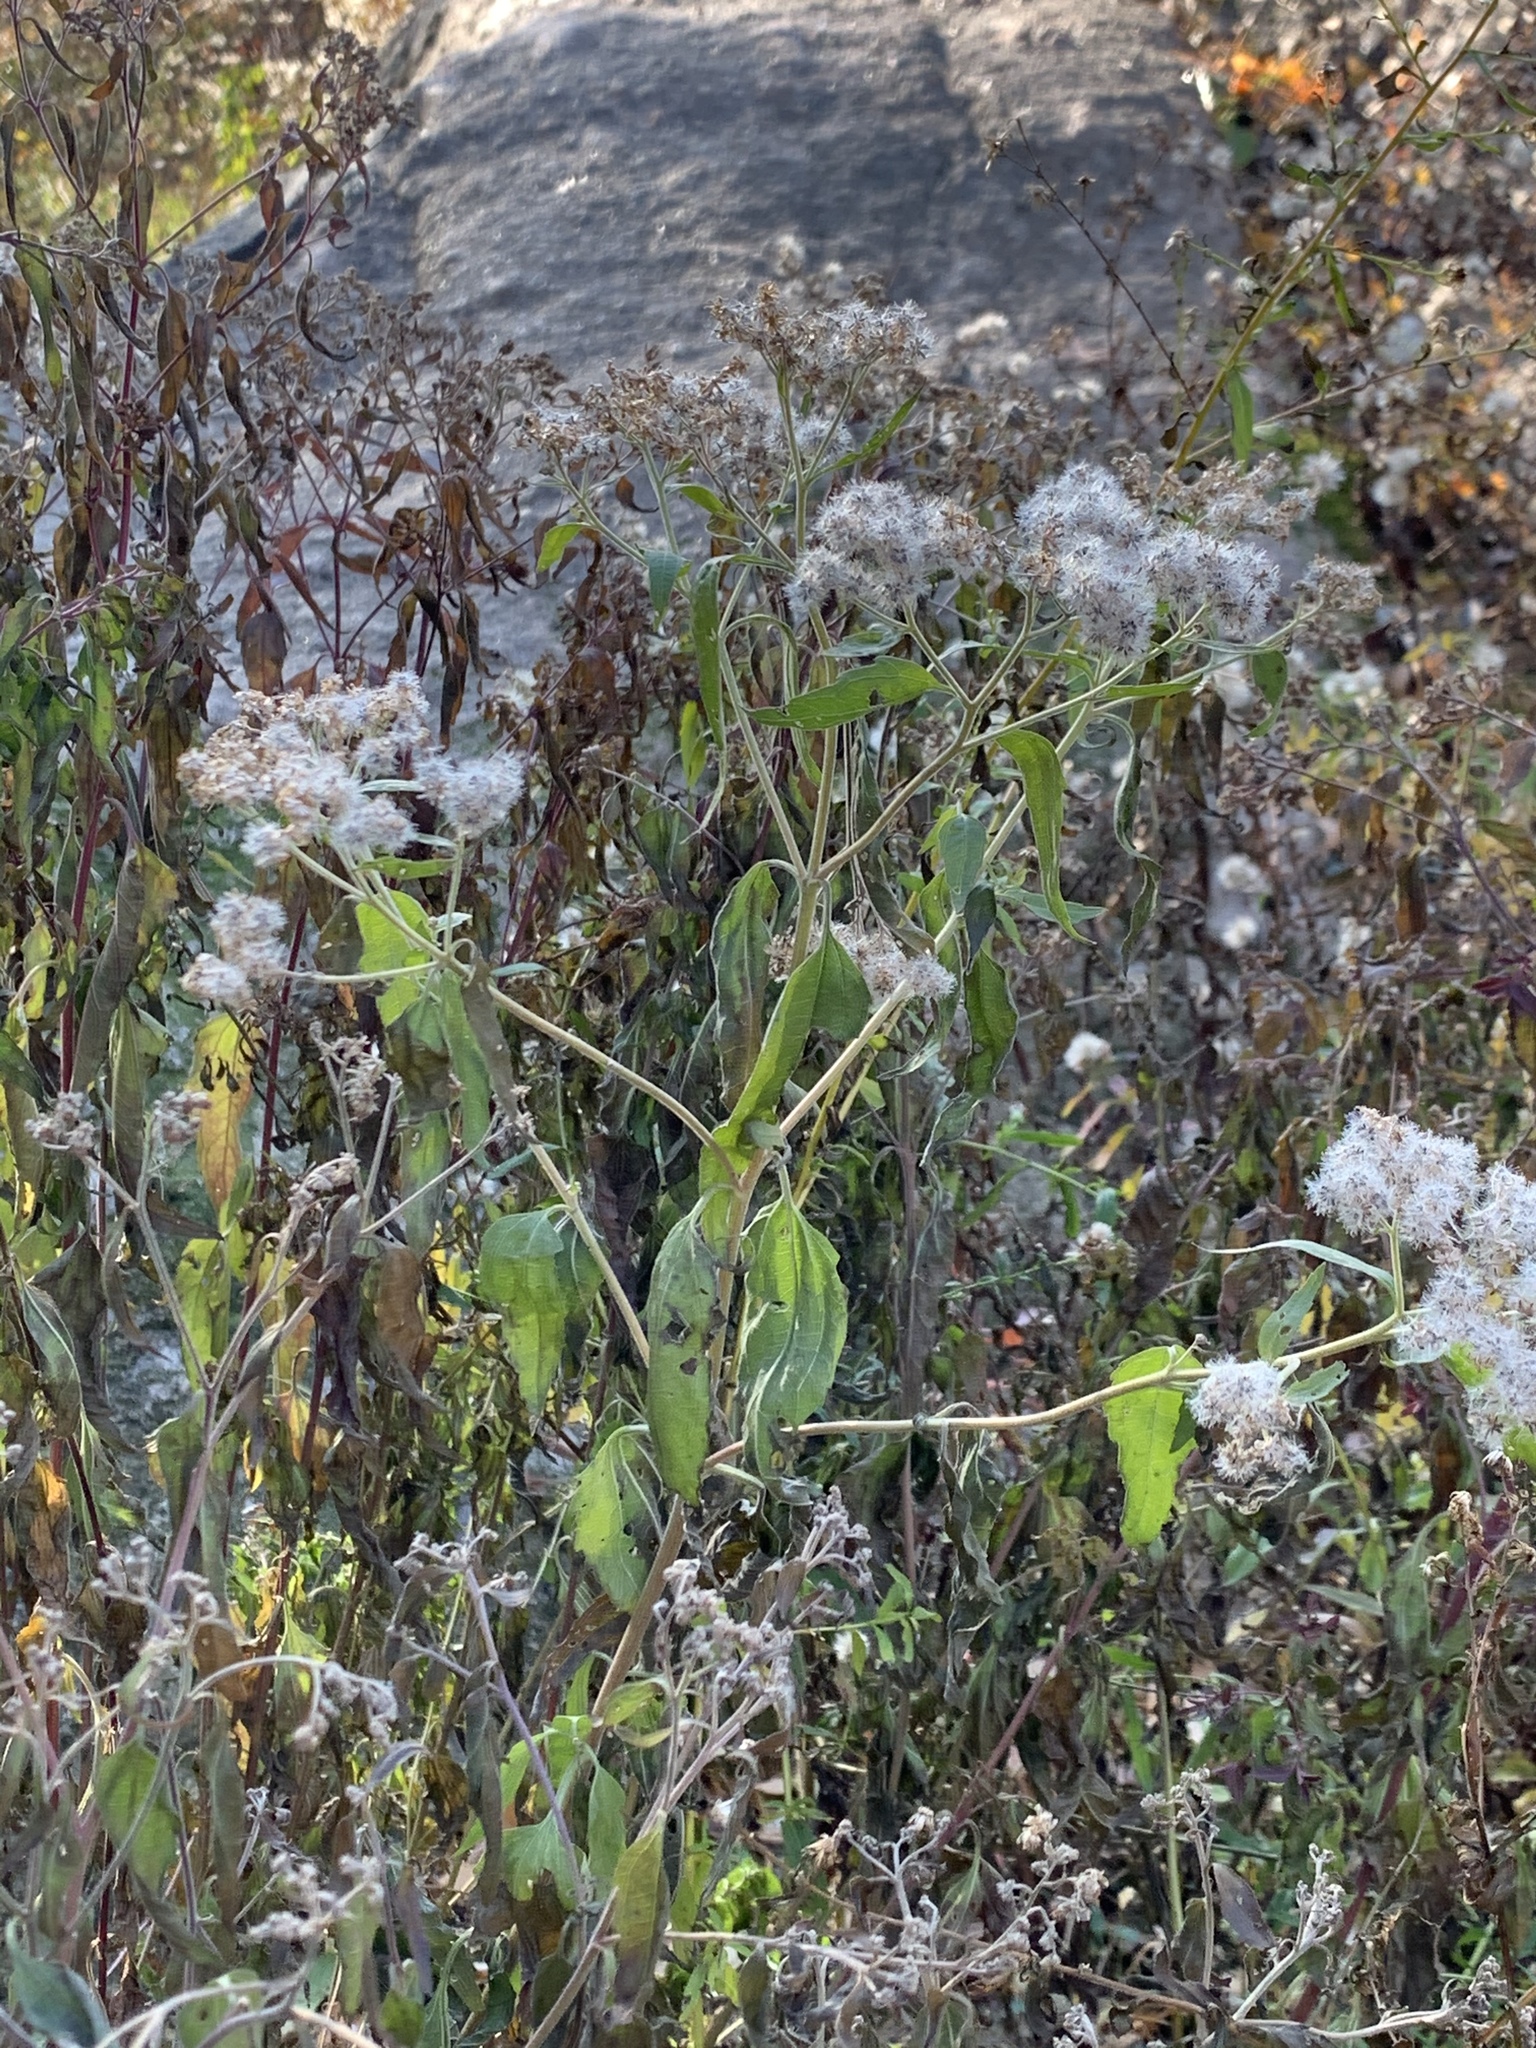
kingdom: Plantae
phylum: Tracheophyta
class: Magnoliopsida
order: Asterales
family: Asteraceae
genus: Eupatorium
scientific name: Eupatorium serotinum
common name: Late boneset
